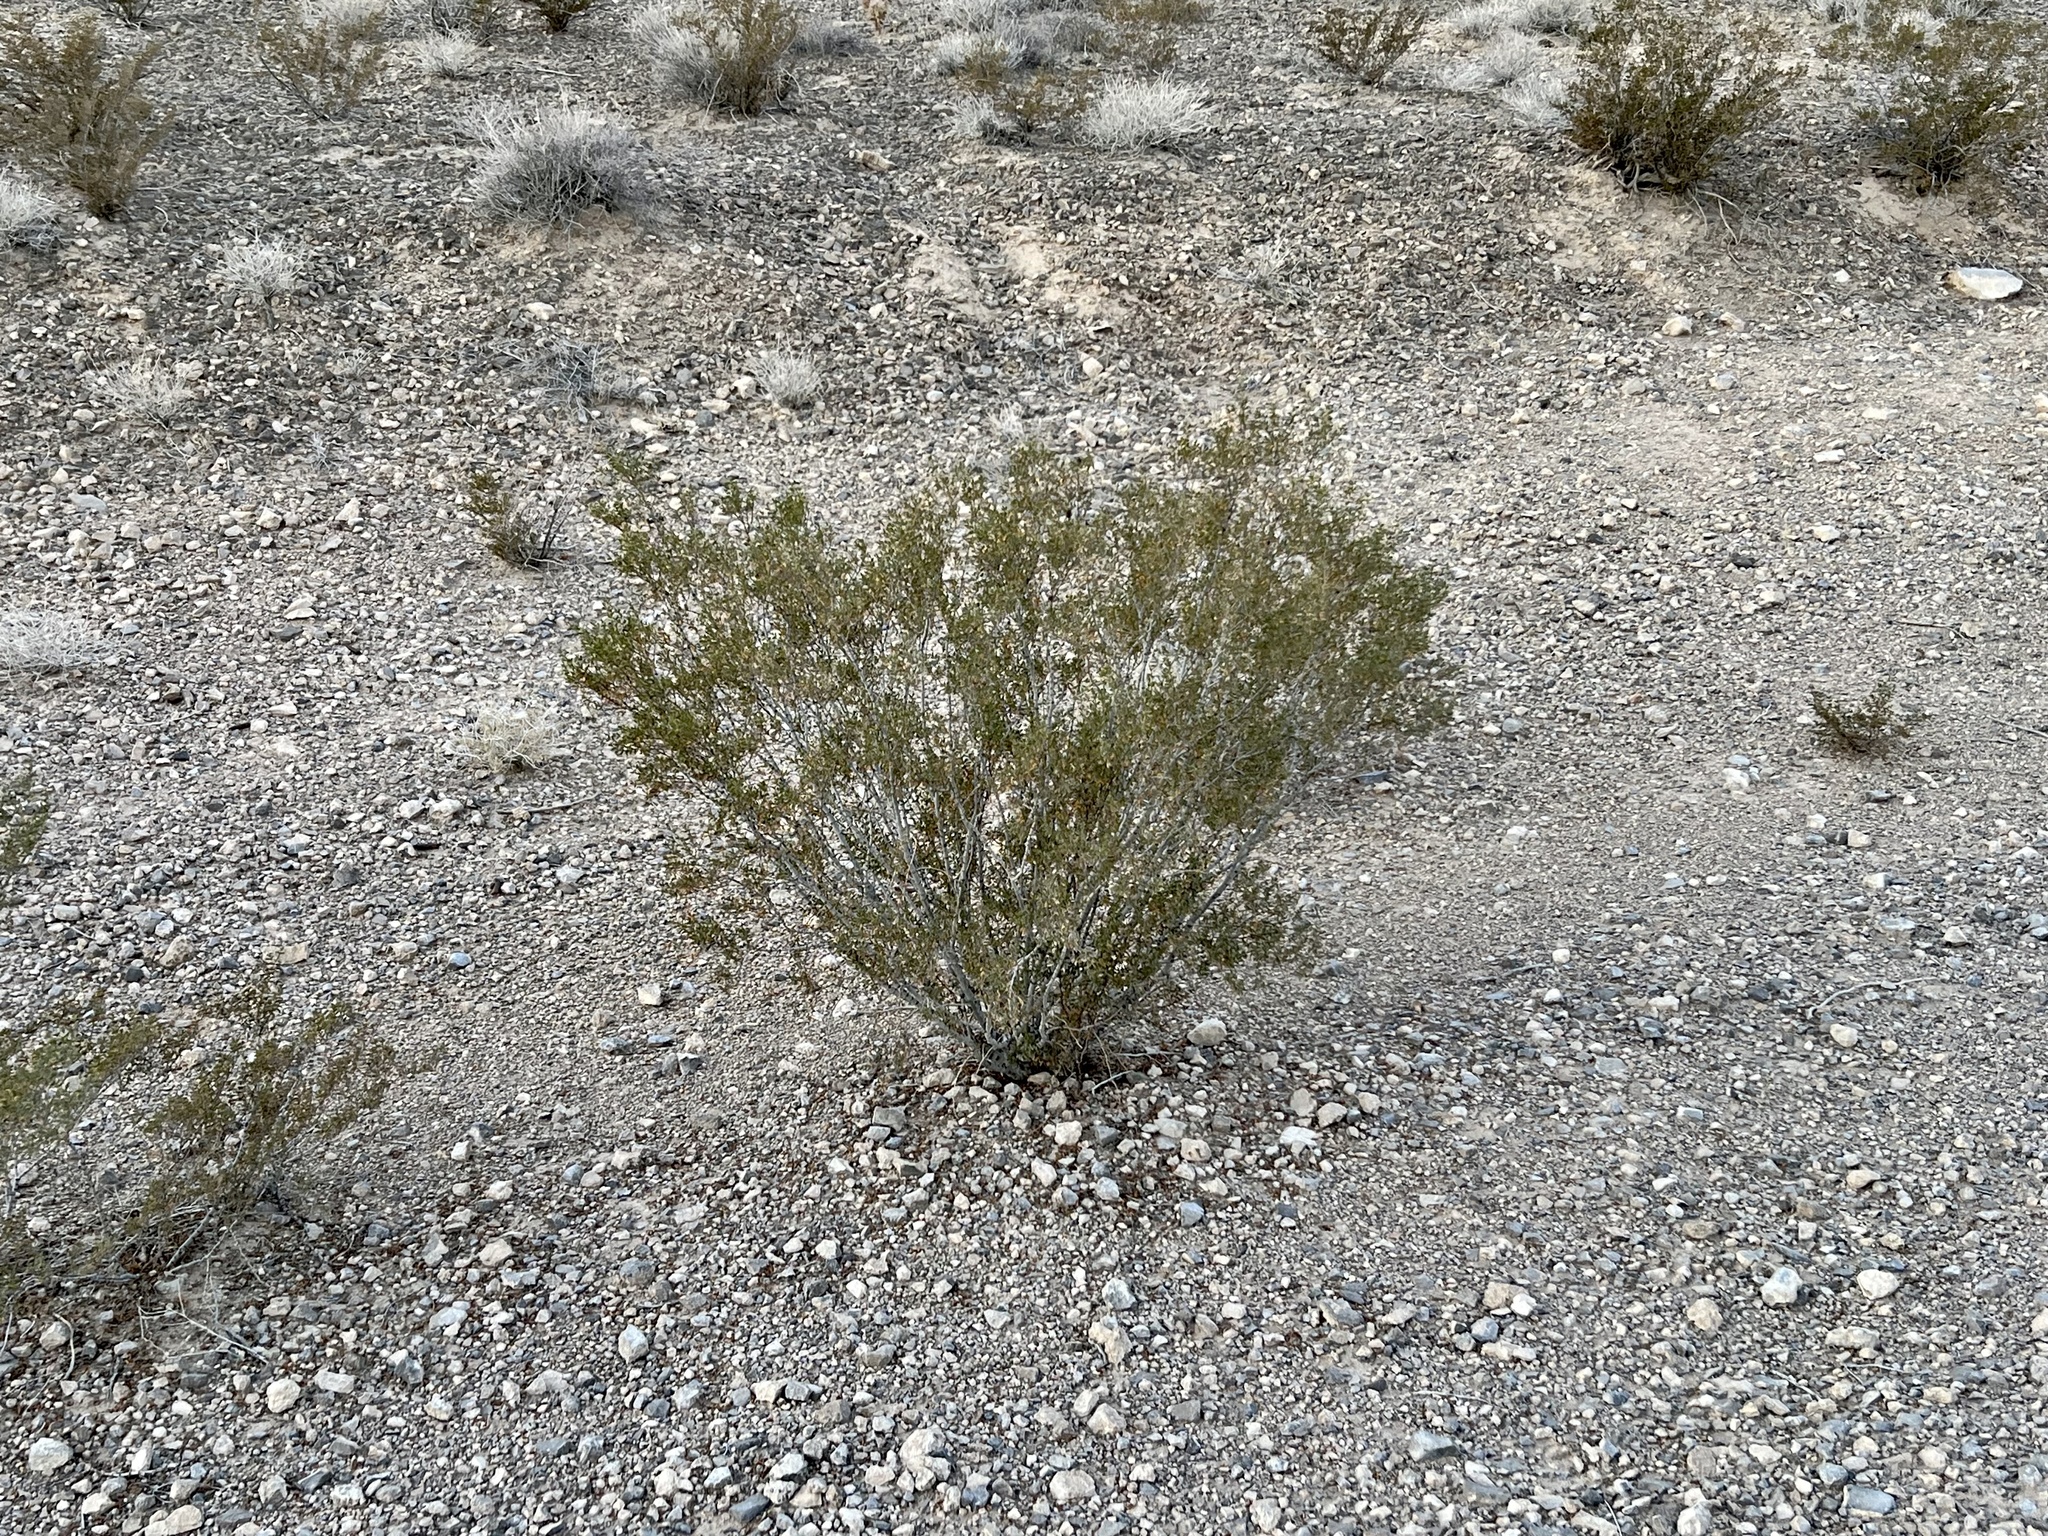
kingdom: Plantae
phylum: Tracheophyta
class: Magnoliopsida
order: Zygophyllales
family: Zygophyllaceae
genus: Larrea
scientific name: Larrea tridentata
